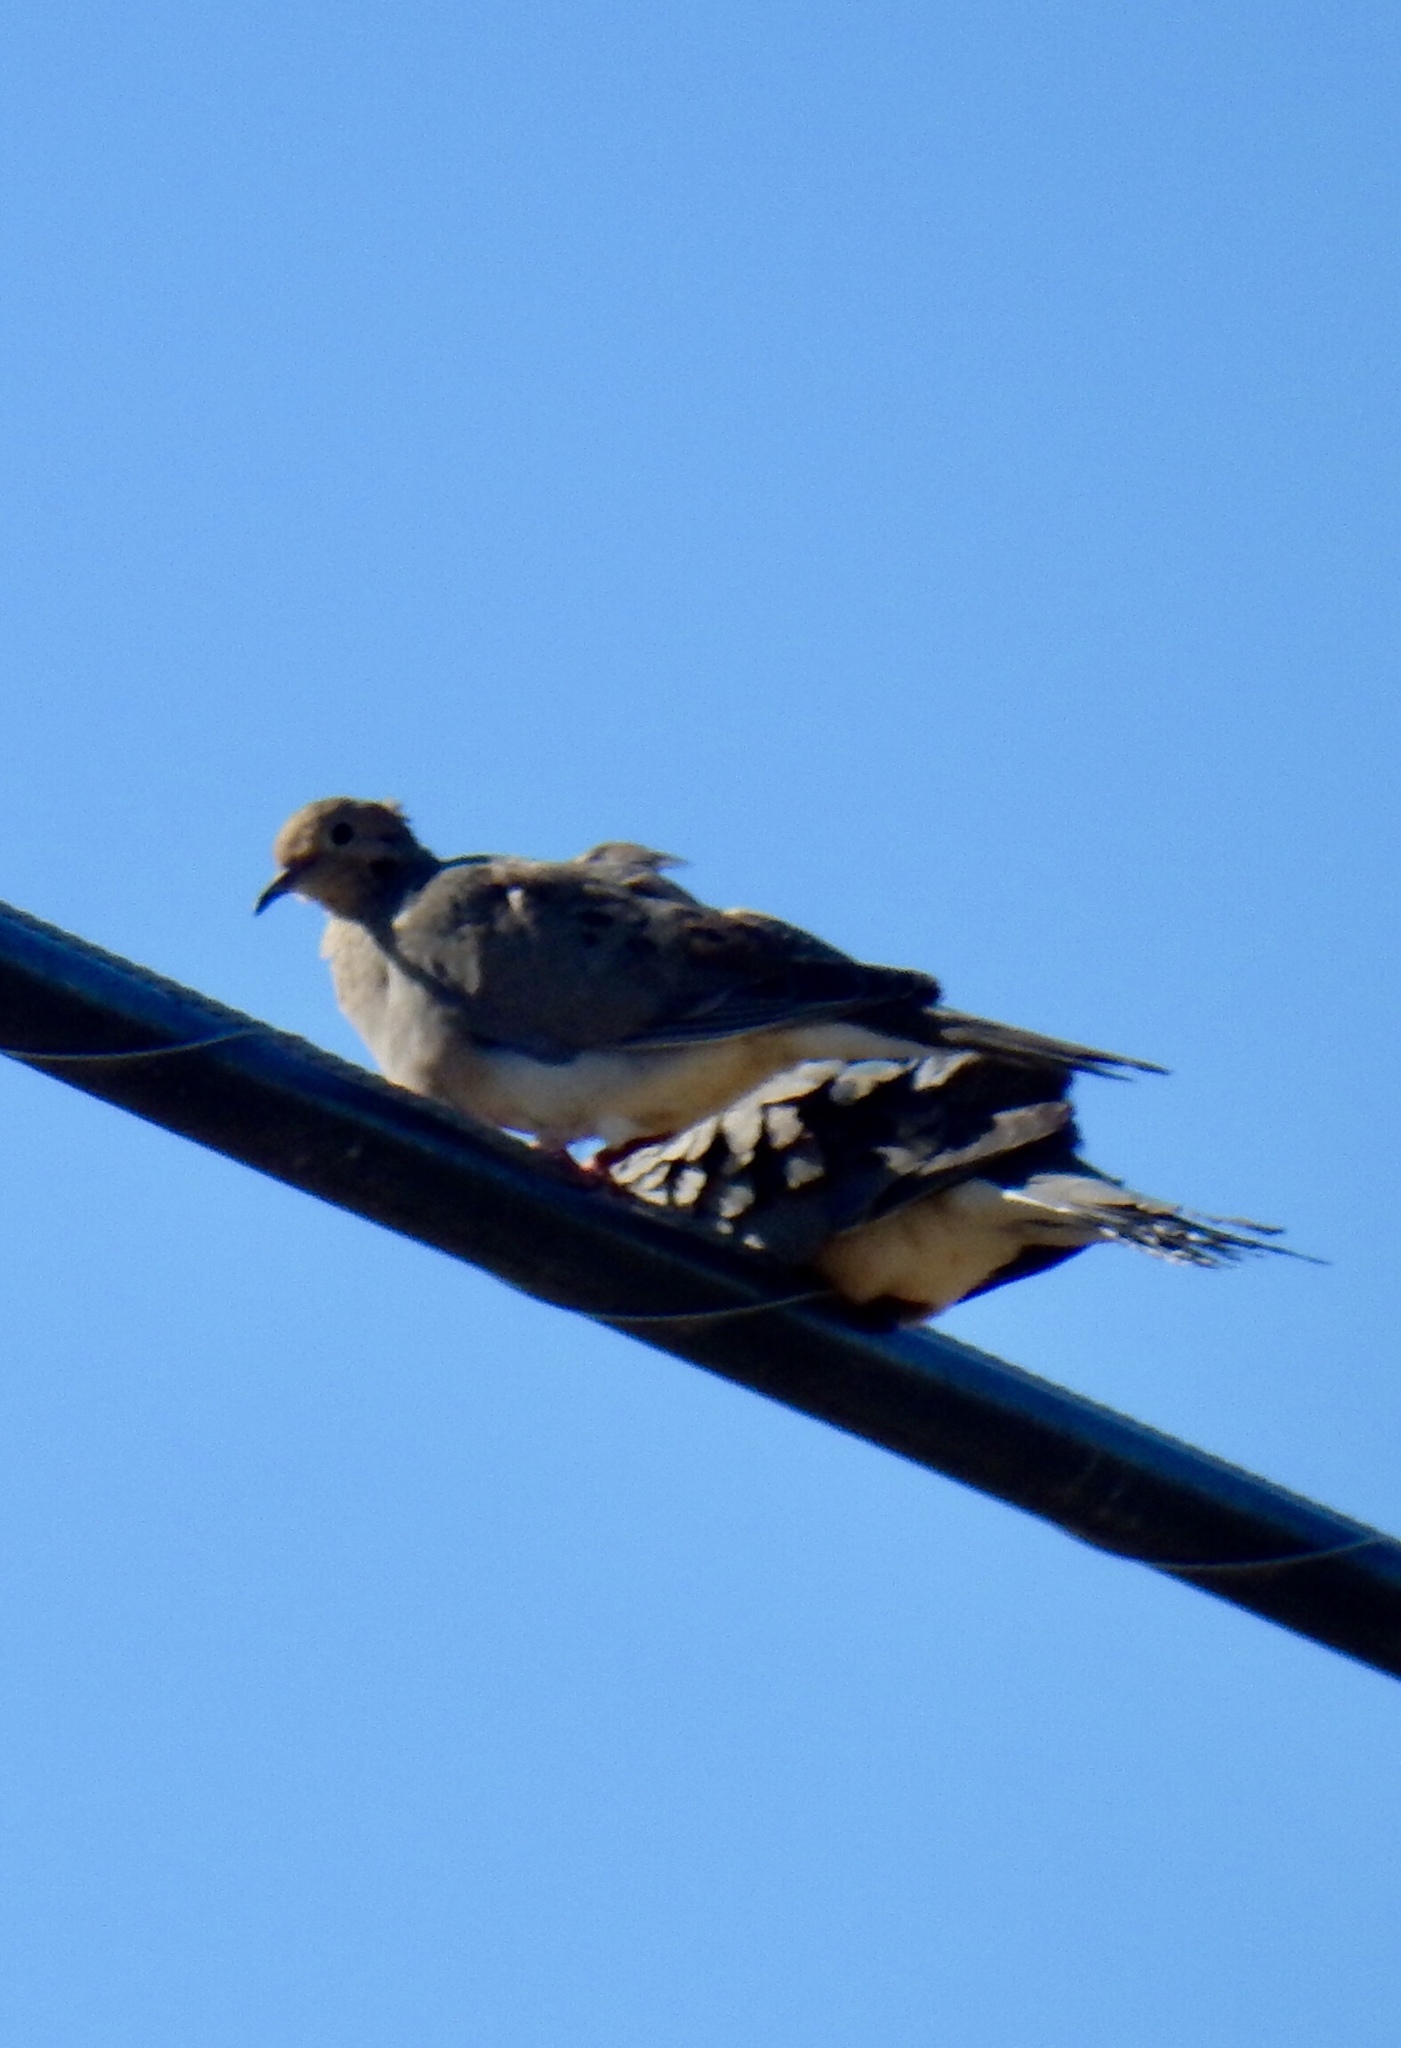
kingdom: Animalia
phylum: Chordata
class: Aves
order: Columbiformes
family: Columbidae
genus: Zenaida
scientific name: Zenaida macroura
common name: Mourning dove
